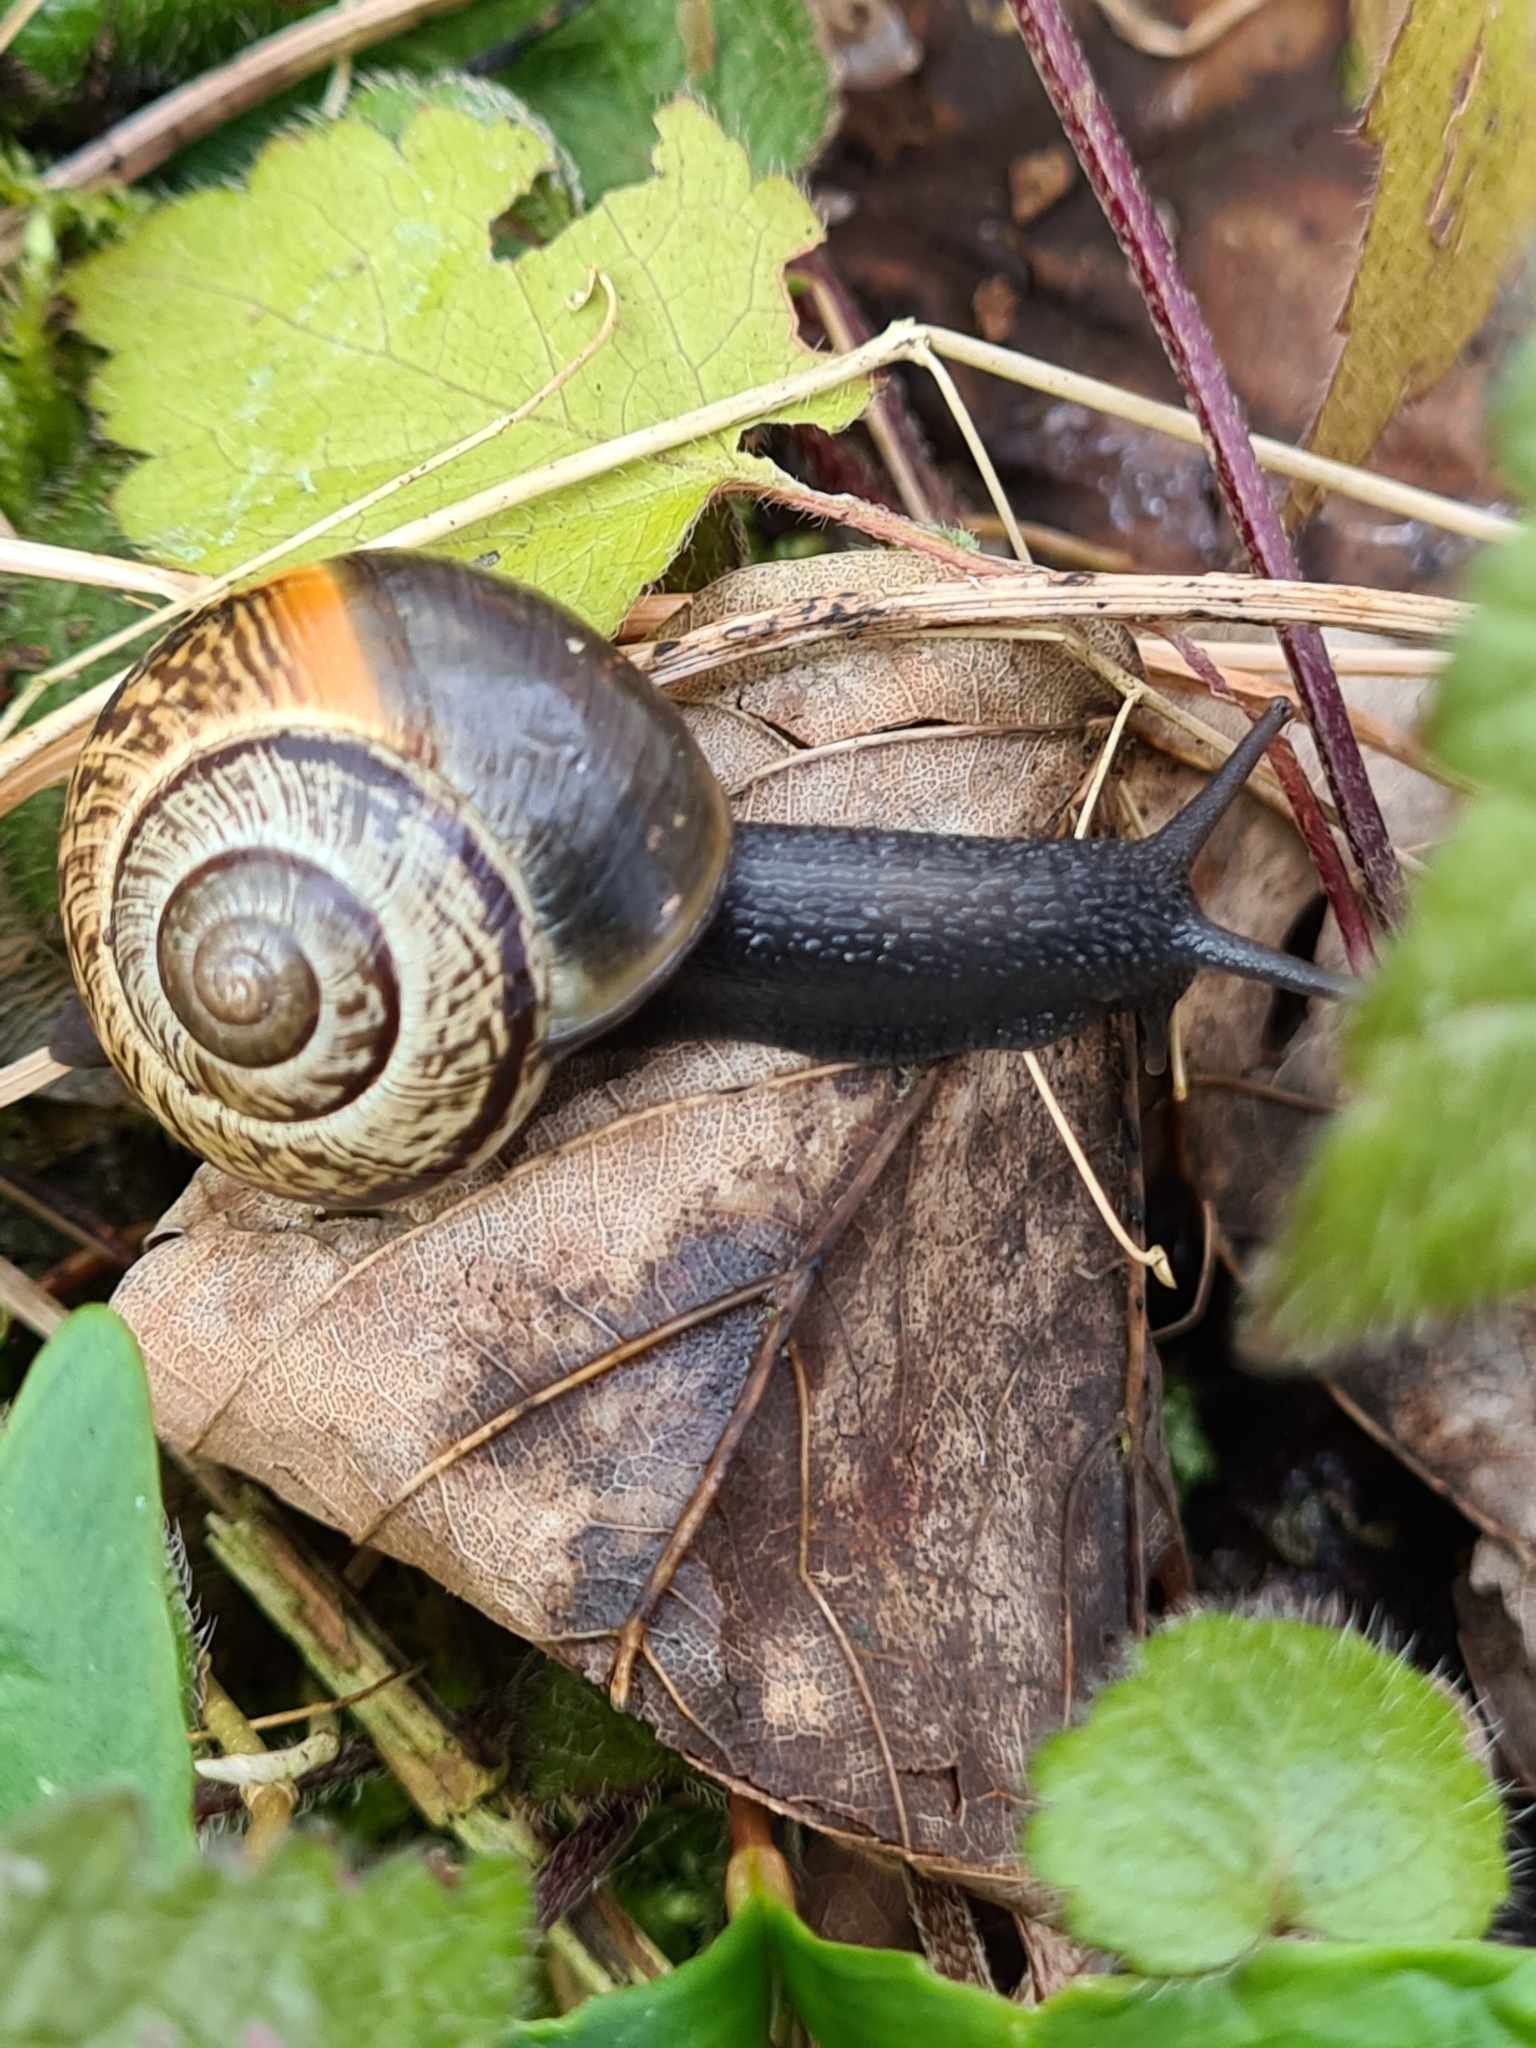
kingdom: Animalia
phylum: Mollusca
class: Gastropoda
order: Stylommatophora
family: Helicidae
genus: Arianta
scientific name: Arianta arbustorum
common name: Copse snail
